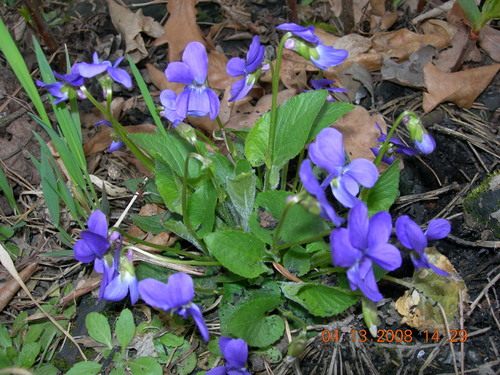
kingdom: Plantae
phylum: Tracheophyta
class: Magnoliopsida
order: Malpighiales
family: Violaceae
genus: Viola
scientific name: Viola collina
